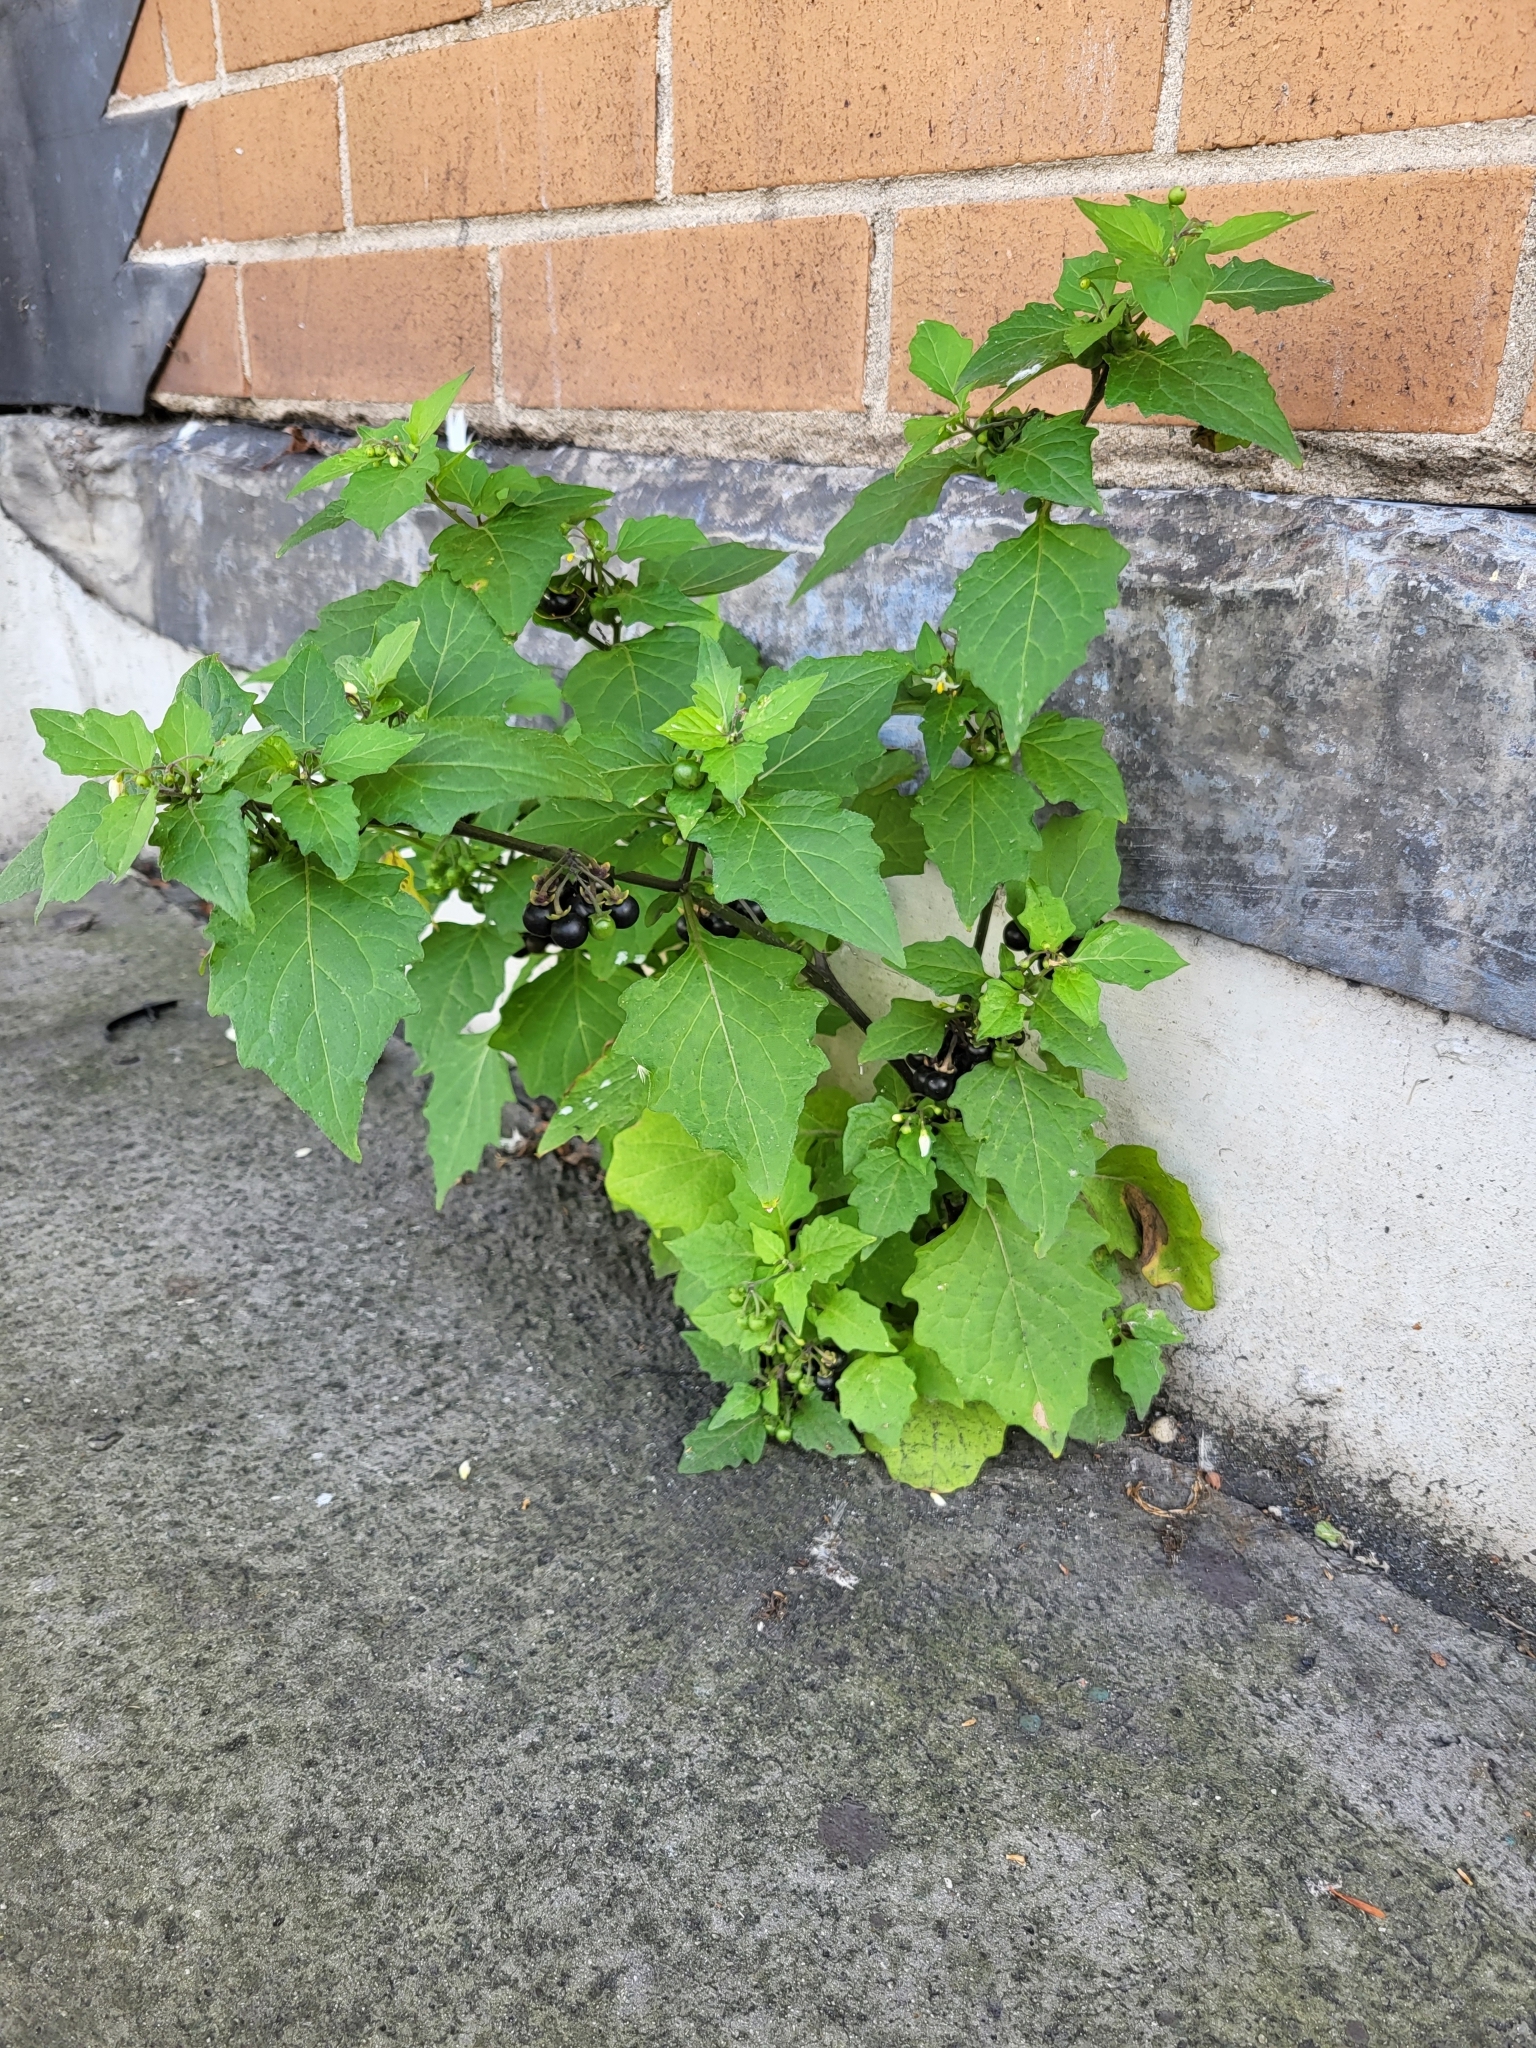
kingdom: Plantae
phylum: Tracheophyta
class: Magnoliopsida
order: Solanales
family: Solanaceae
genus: Solanum
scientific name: Solanum nigrum
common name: Black nightshade
